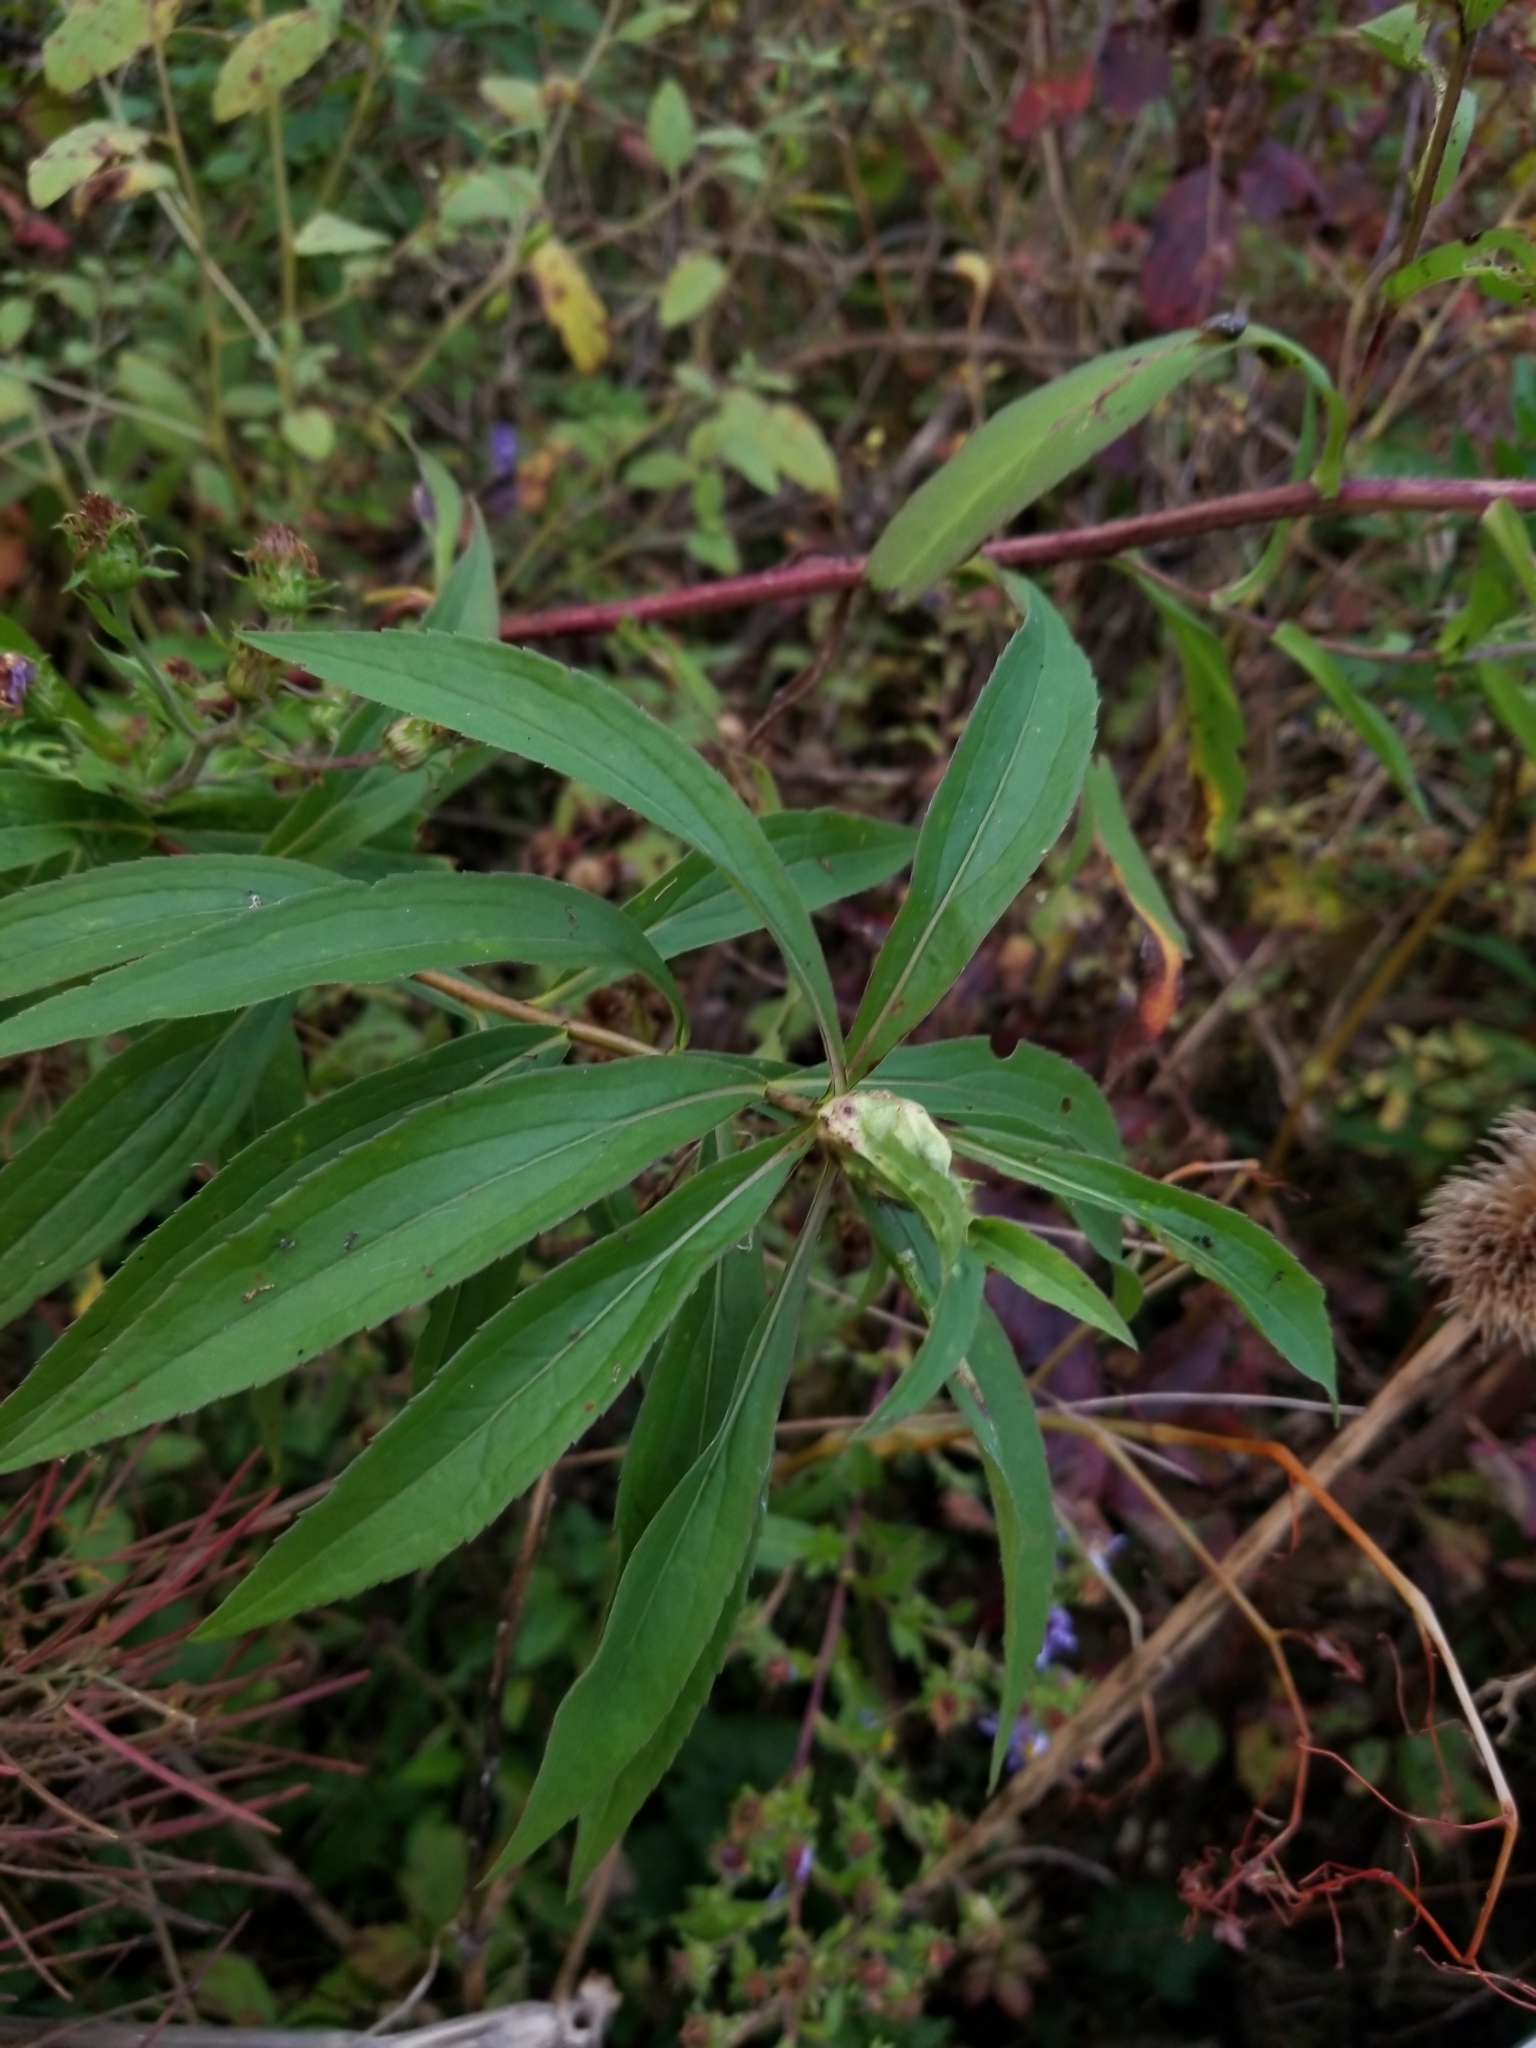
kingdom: Animalia
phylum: Arthropoda
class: Insecta
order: Diptera
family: Cecidomyiidae
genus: Dasineura
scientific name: Dasineura folliculi
